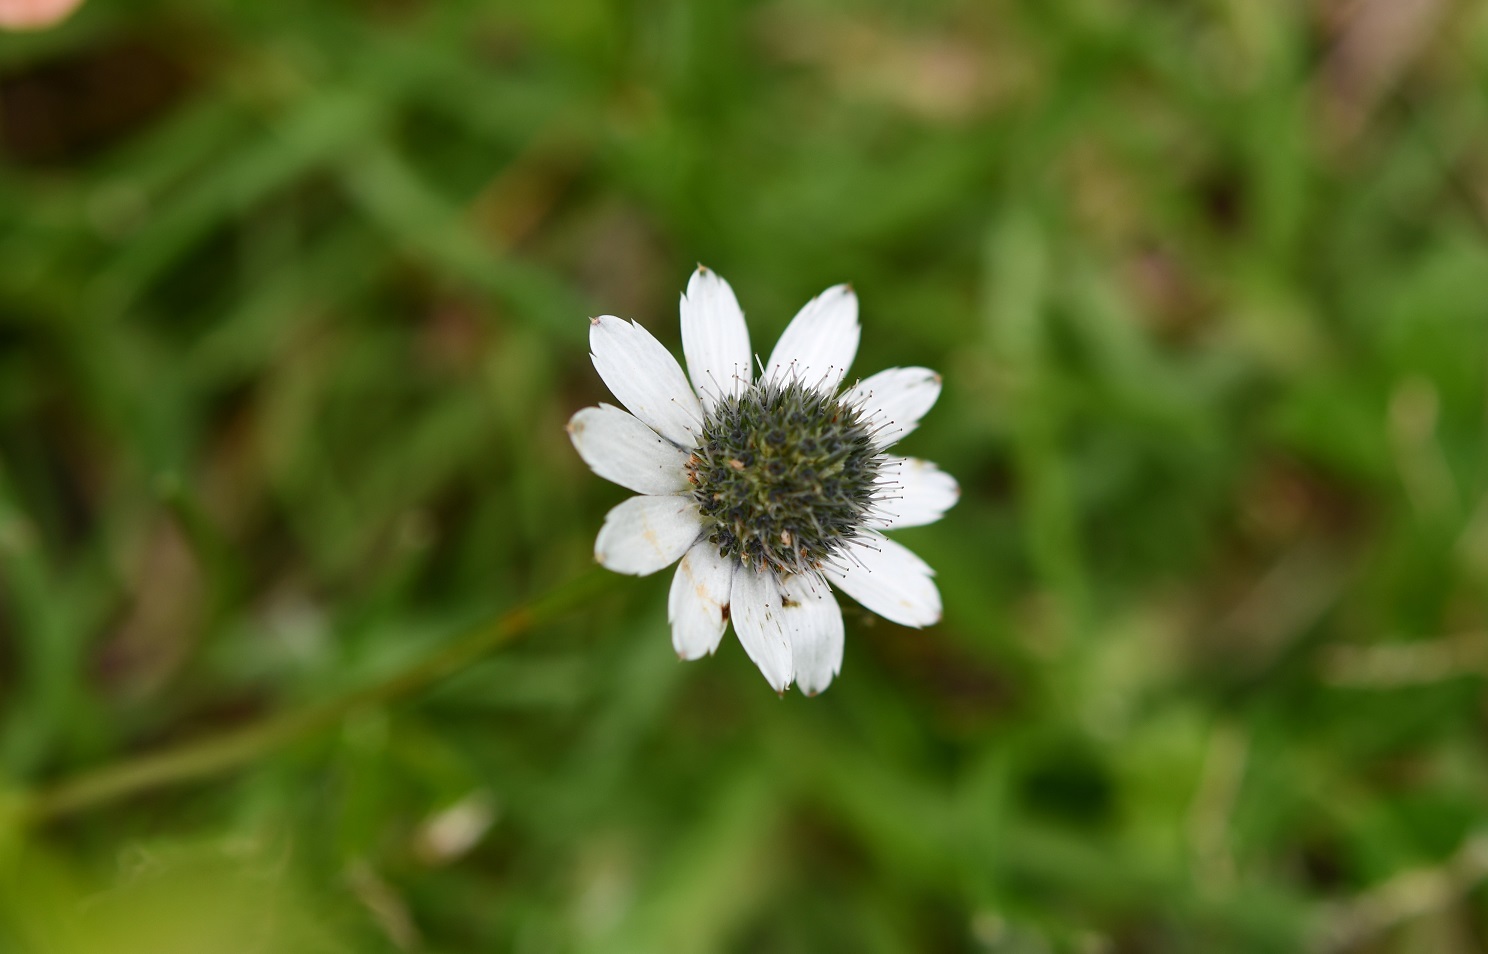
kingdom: Plantae
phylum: Tracheophyta
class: Magnoliopsida
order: Apiales
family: Apiaceae
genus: Eryngium
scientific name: Eryngium scaposum
